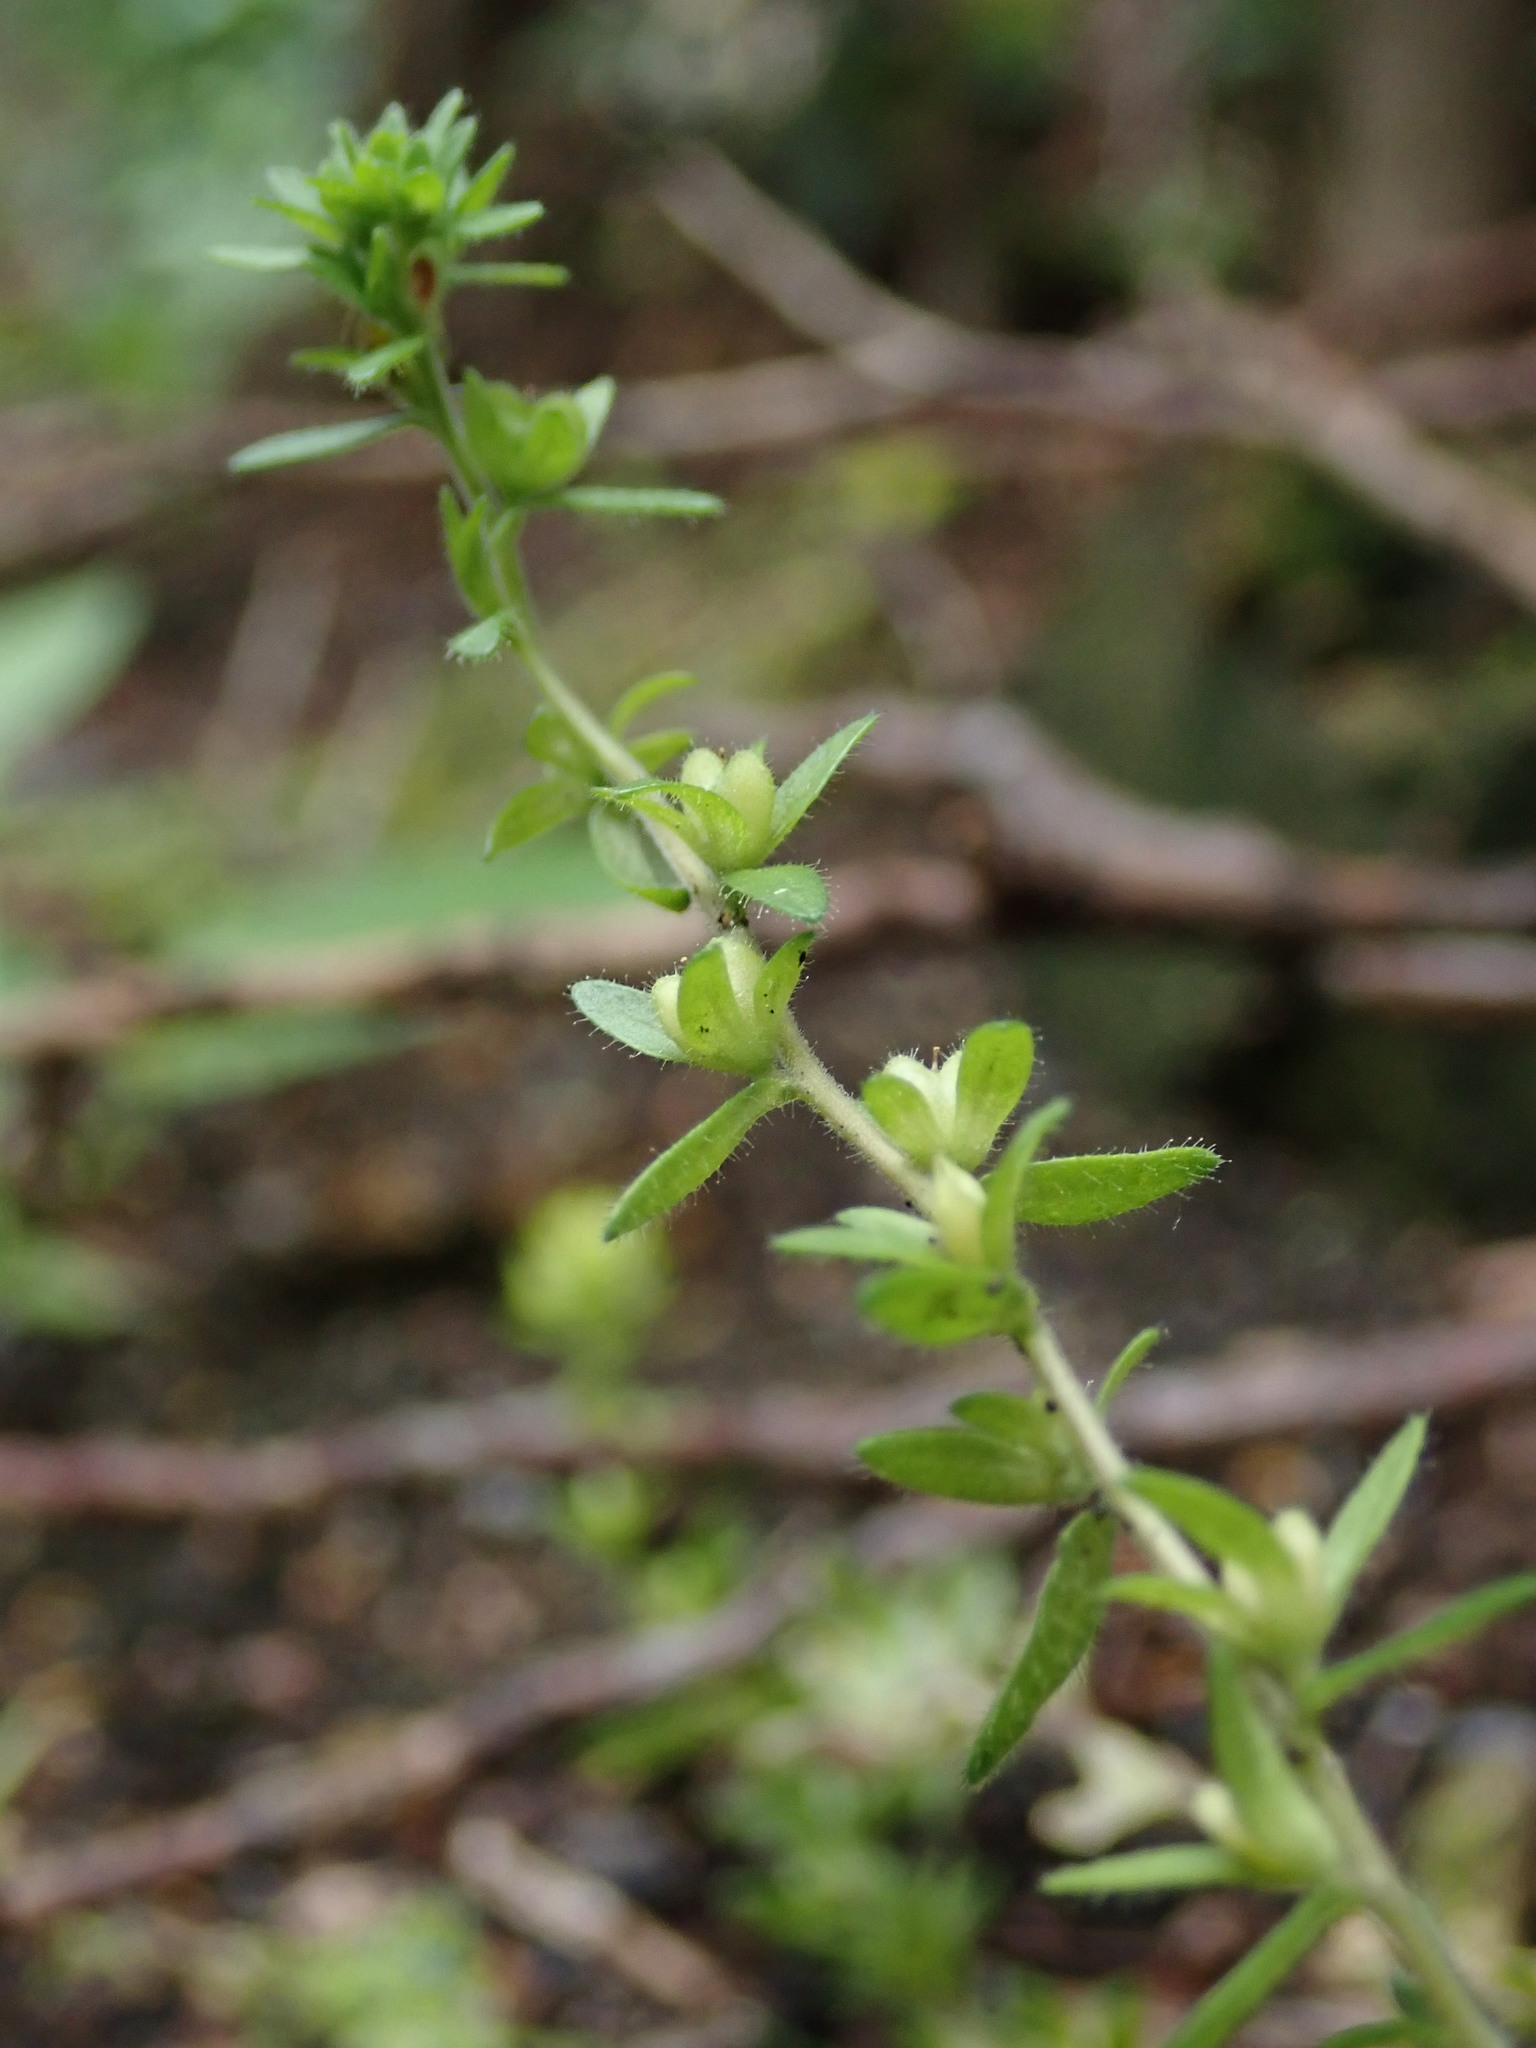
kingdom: Plantae
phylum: Tracheophyta
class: Magnoliopsida
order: Lamiales
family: Plantaginaceae
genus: Veronica
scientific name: Veronica arvensis
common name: Corn speedwell
